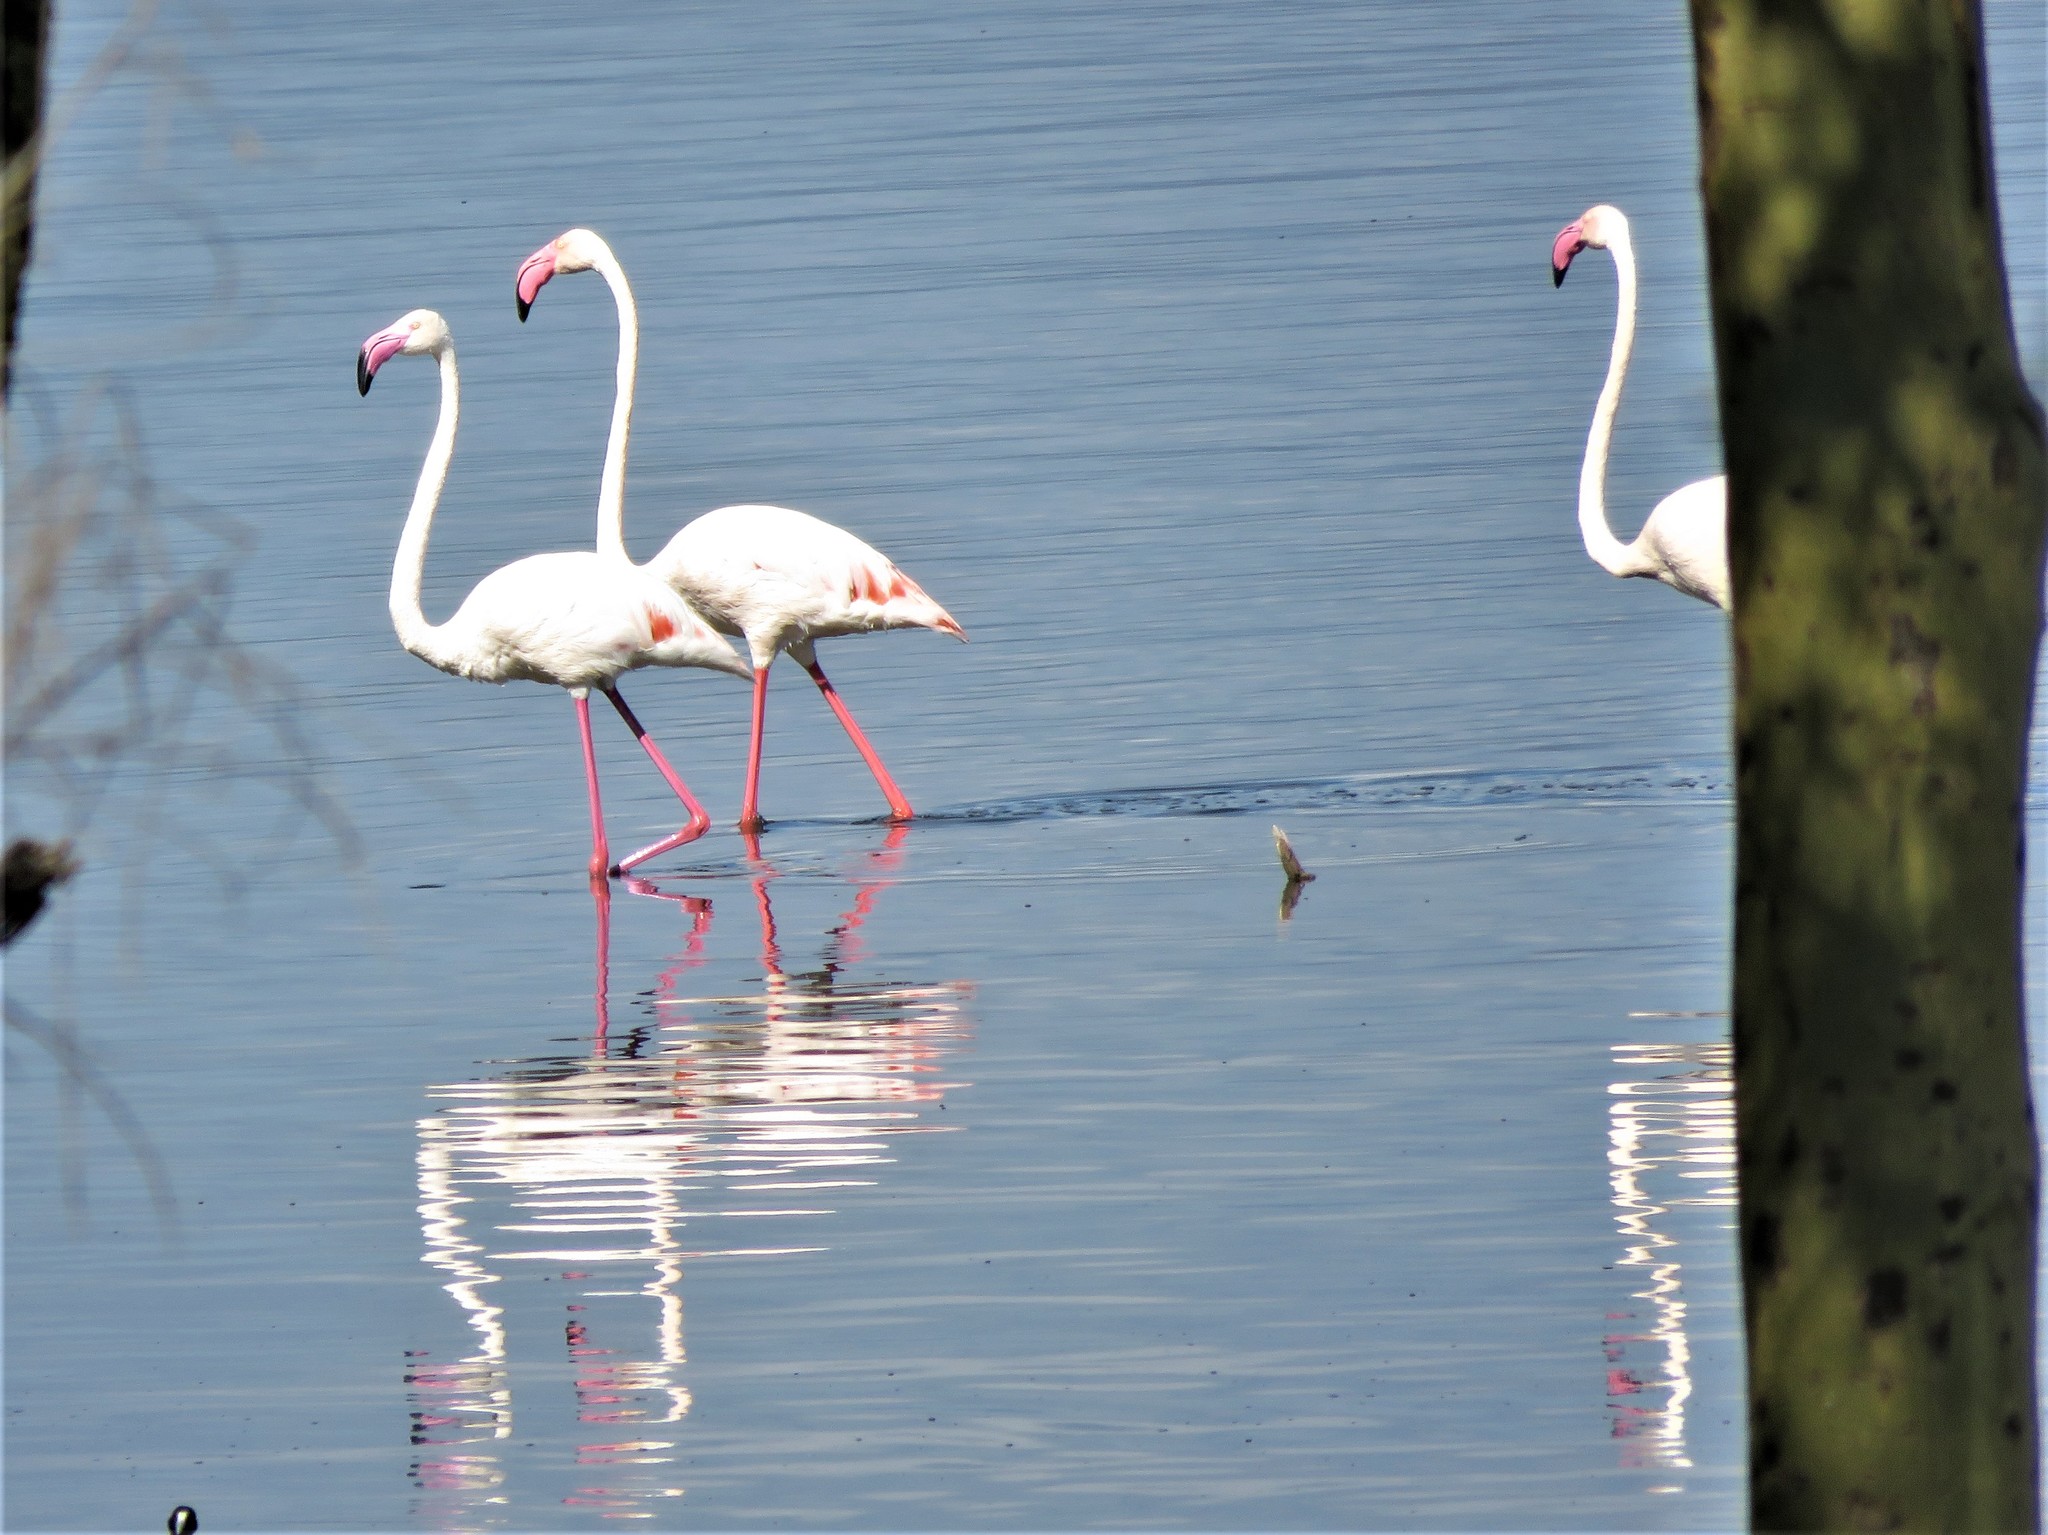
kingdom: Animalia
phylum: Chordata
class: Aves
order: Phoenicopteriformes
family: Phoenicopteridae
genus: Phoenicopterus
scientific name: Phoenicopterus roseus
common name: Greater flamingo
